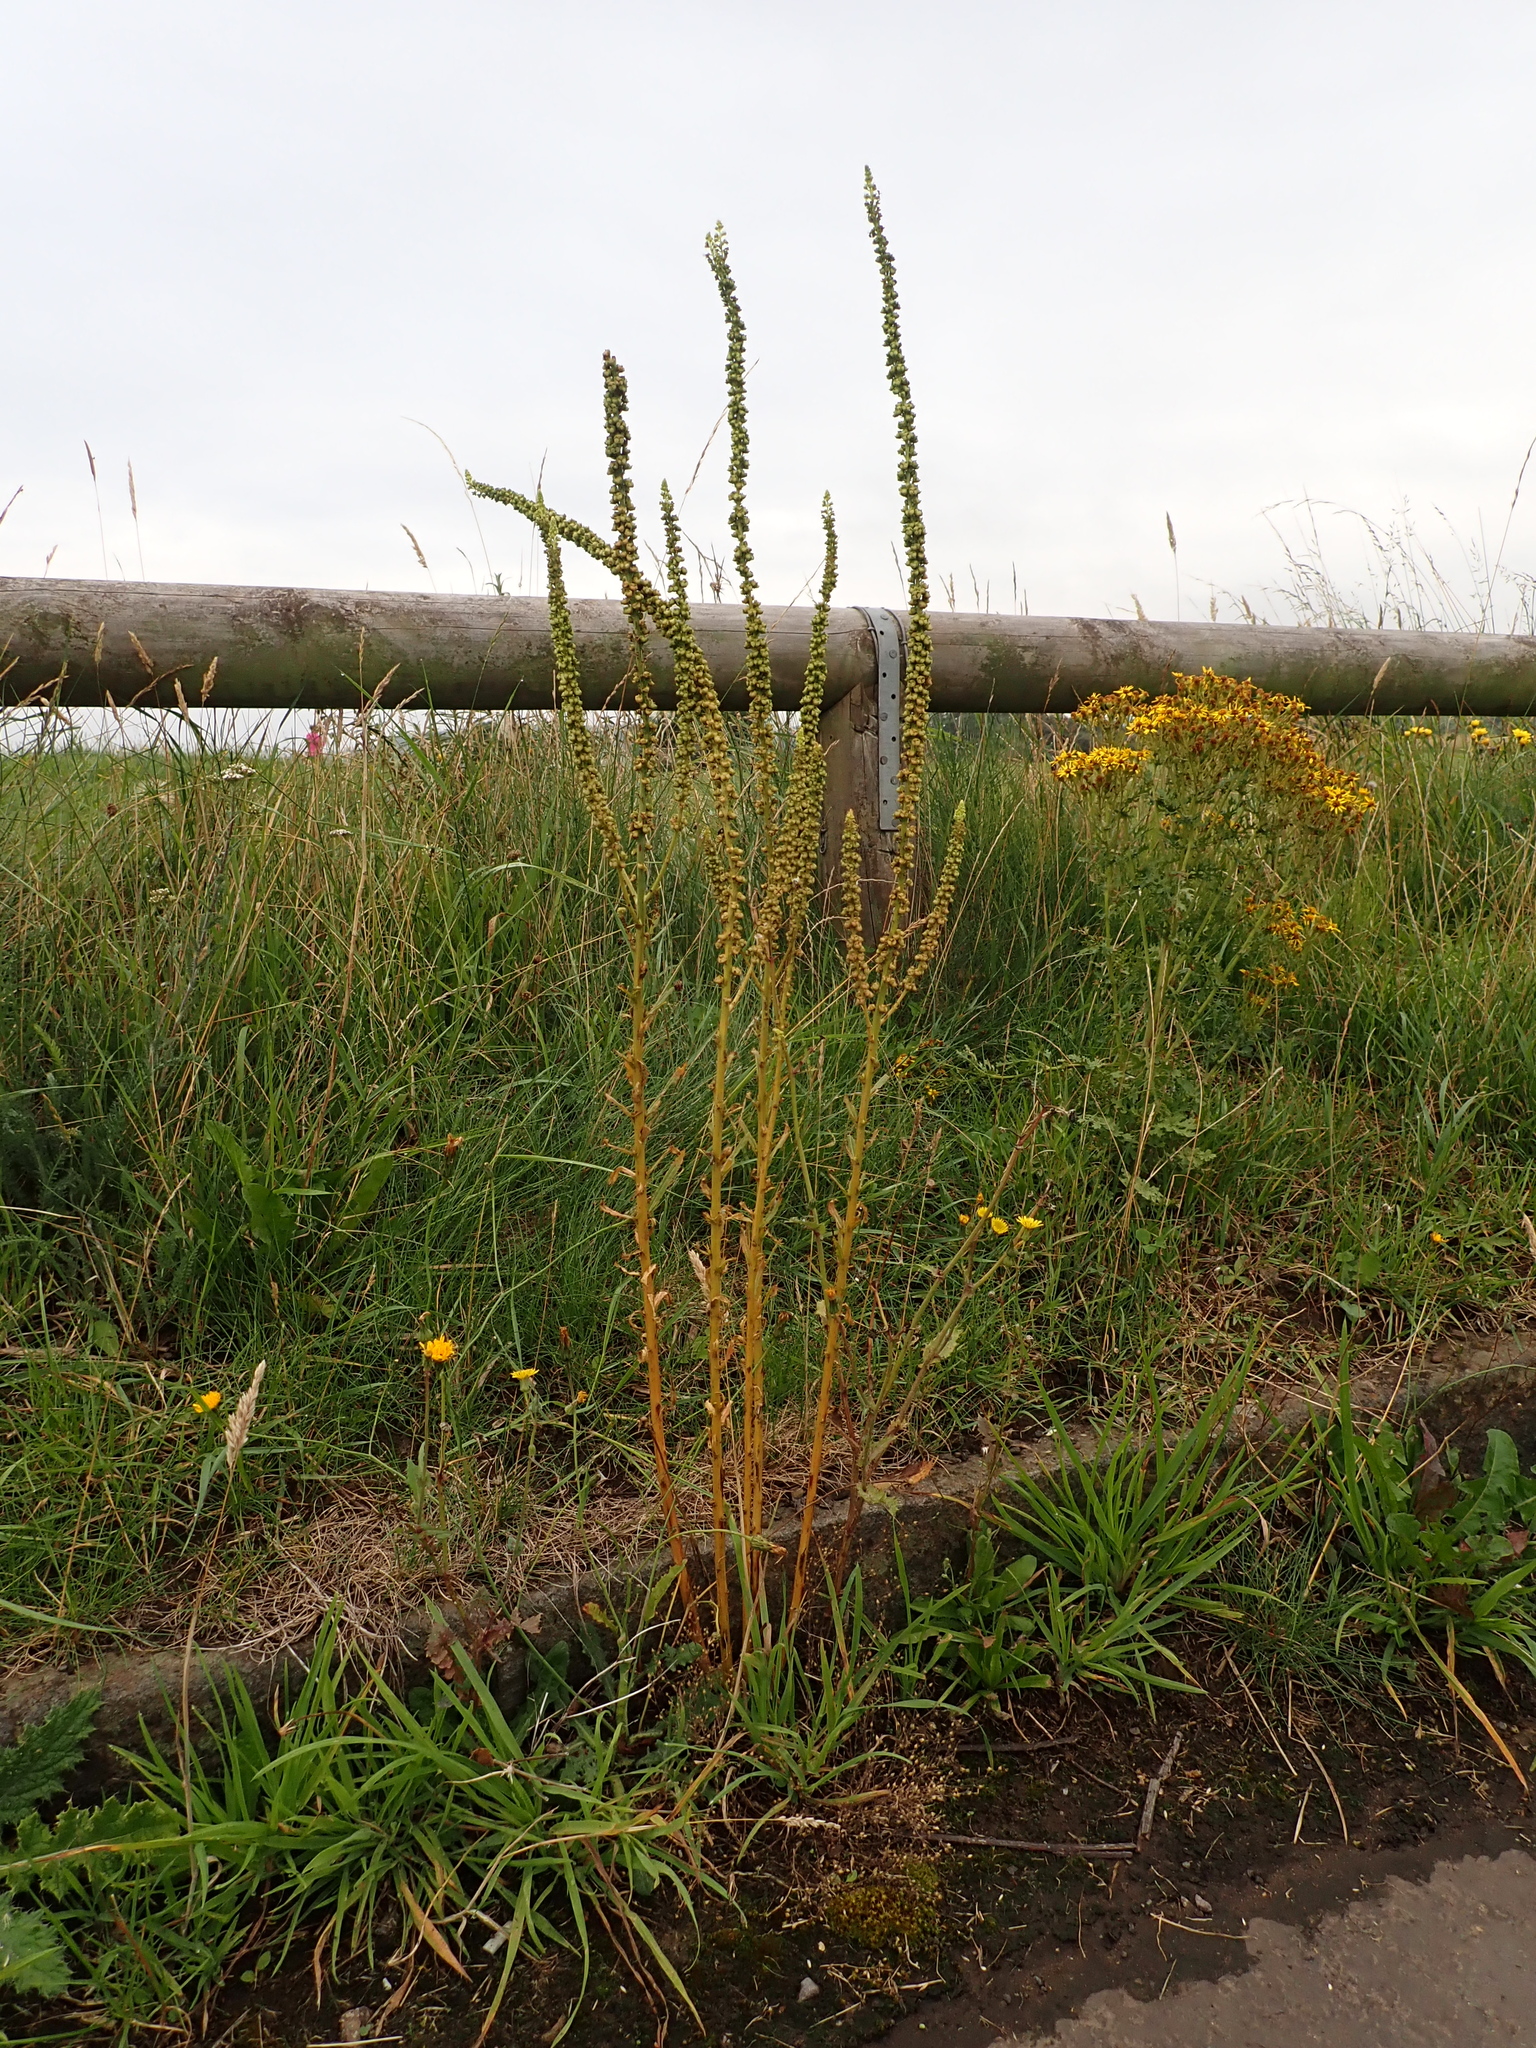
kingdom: Plantae
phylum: Tracheophyta
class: Magnoliopsida
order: Brassicales
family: Resedaceae
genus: Reseda
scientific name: Reseda luteola
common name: Weld
